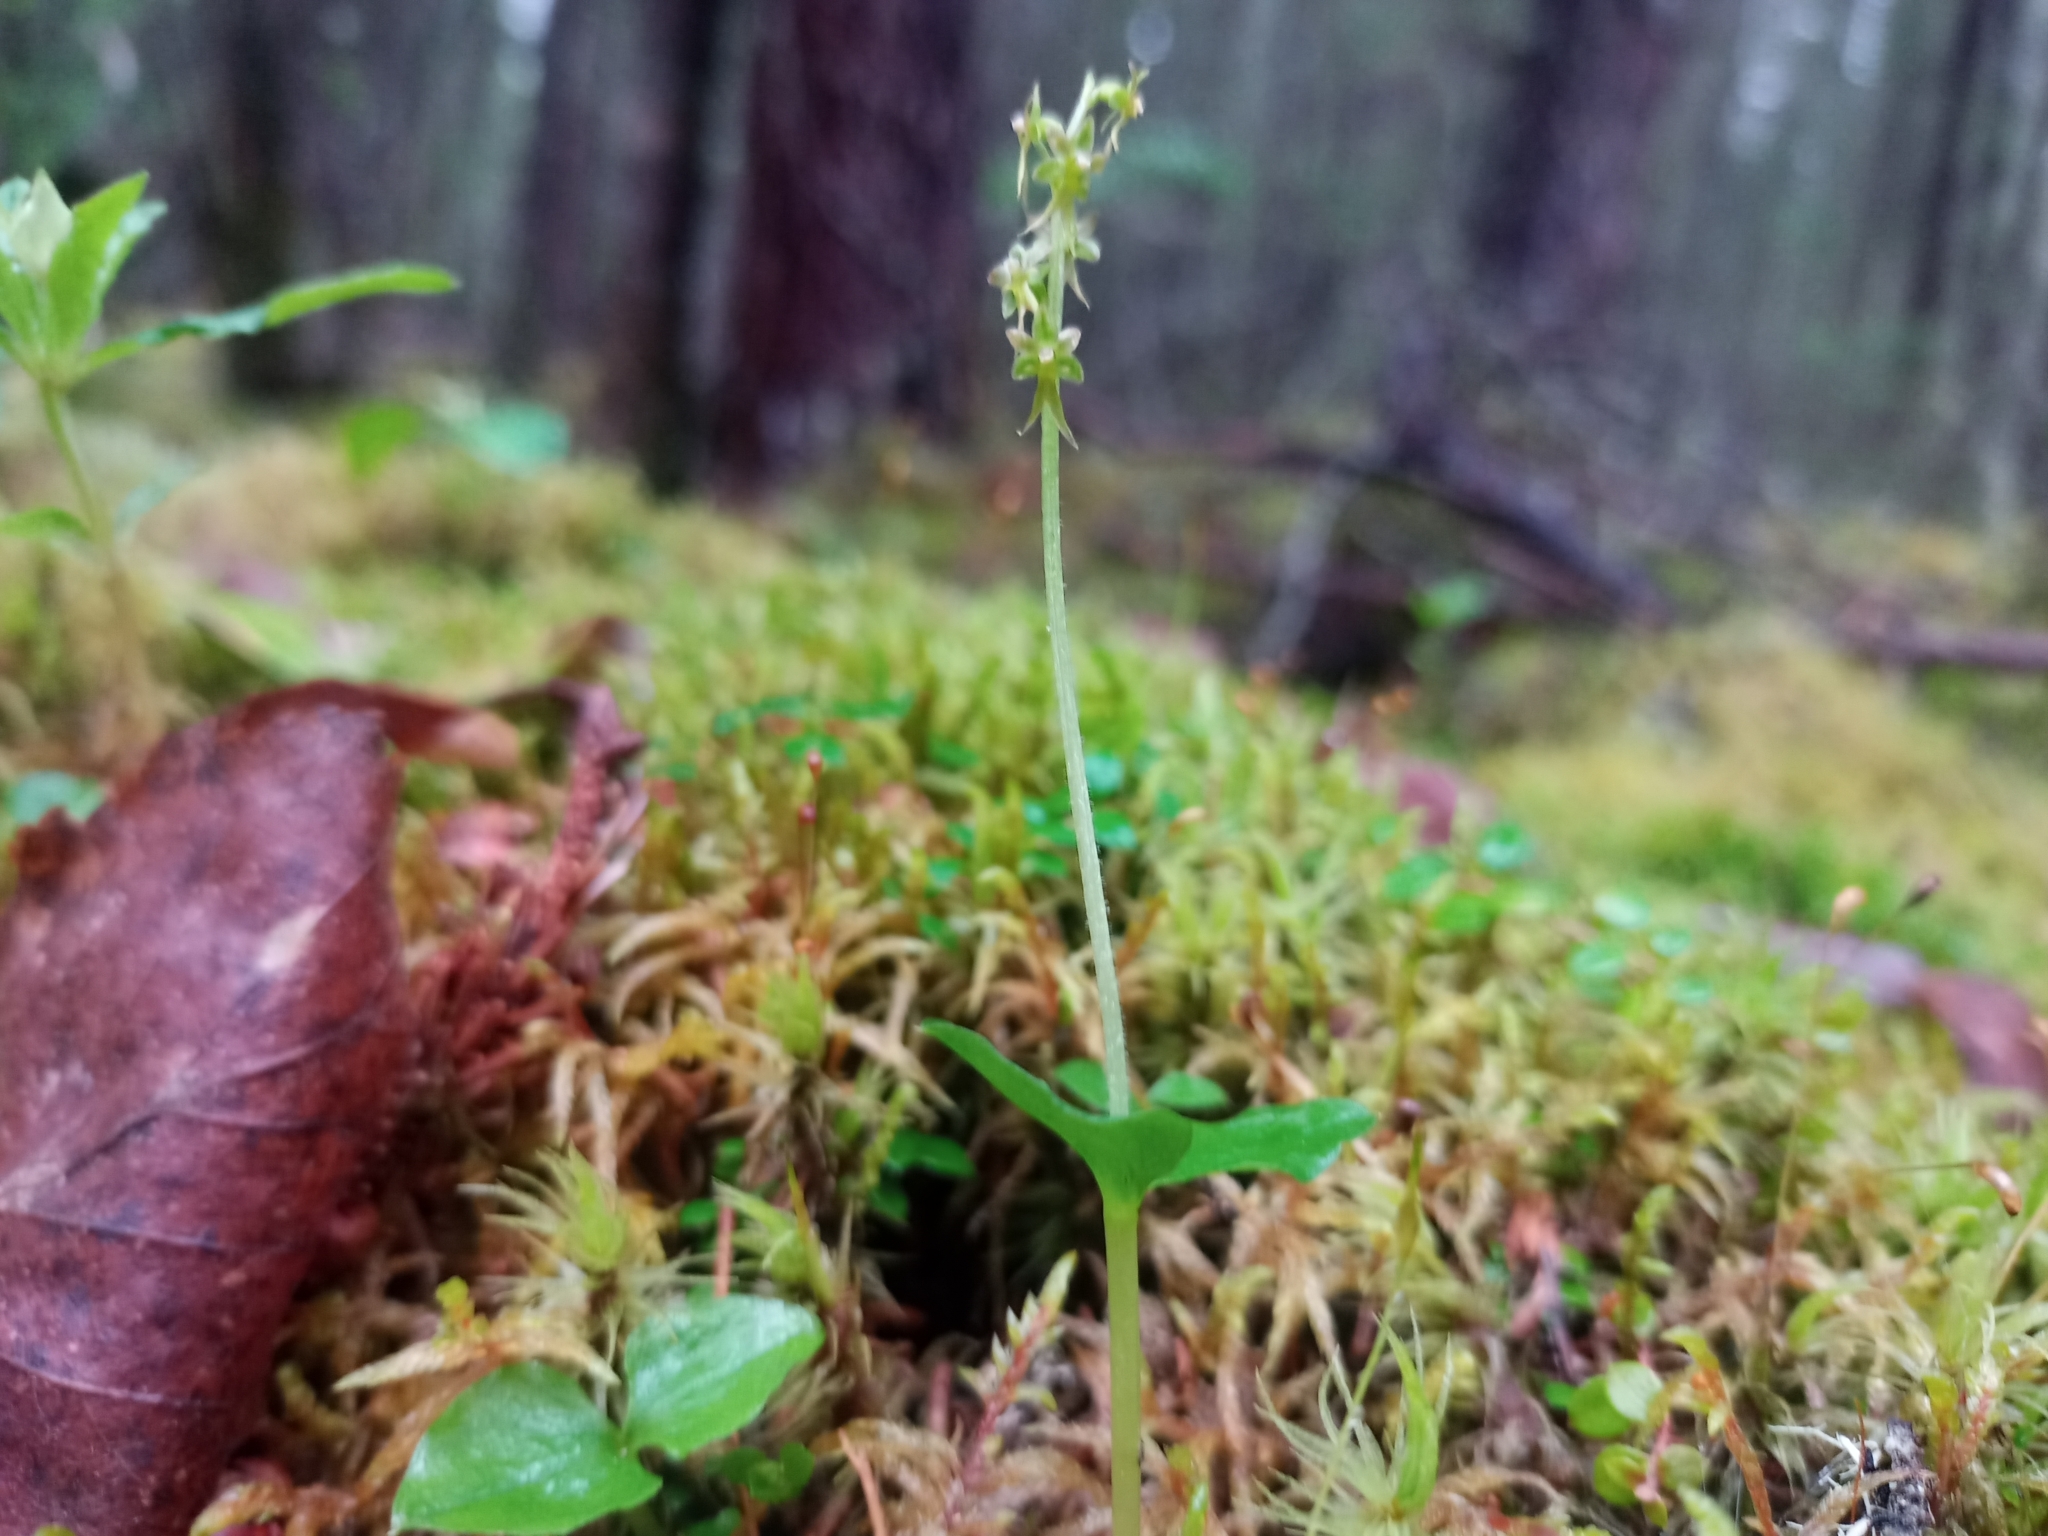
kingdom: Plantae
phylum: Tracheophyta
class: Liliopsida
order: Asparagales
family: Orchidaceae
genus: Neottia
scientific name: Neottia cordata
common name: Lesser twayblade
